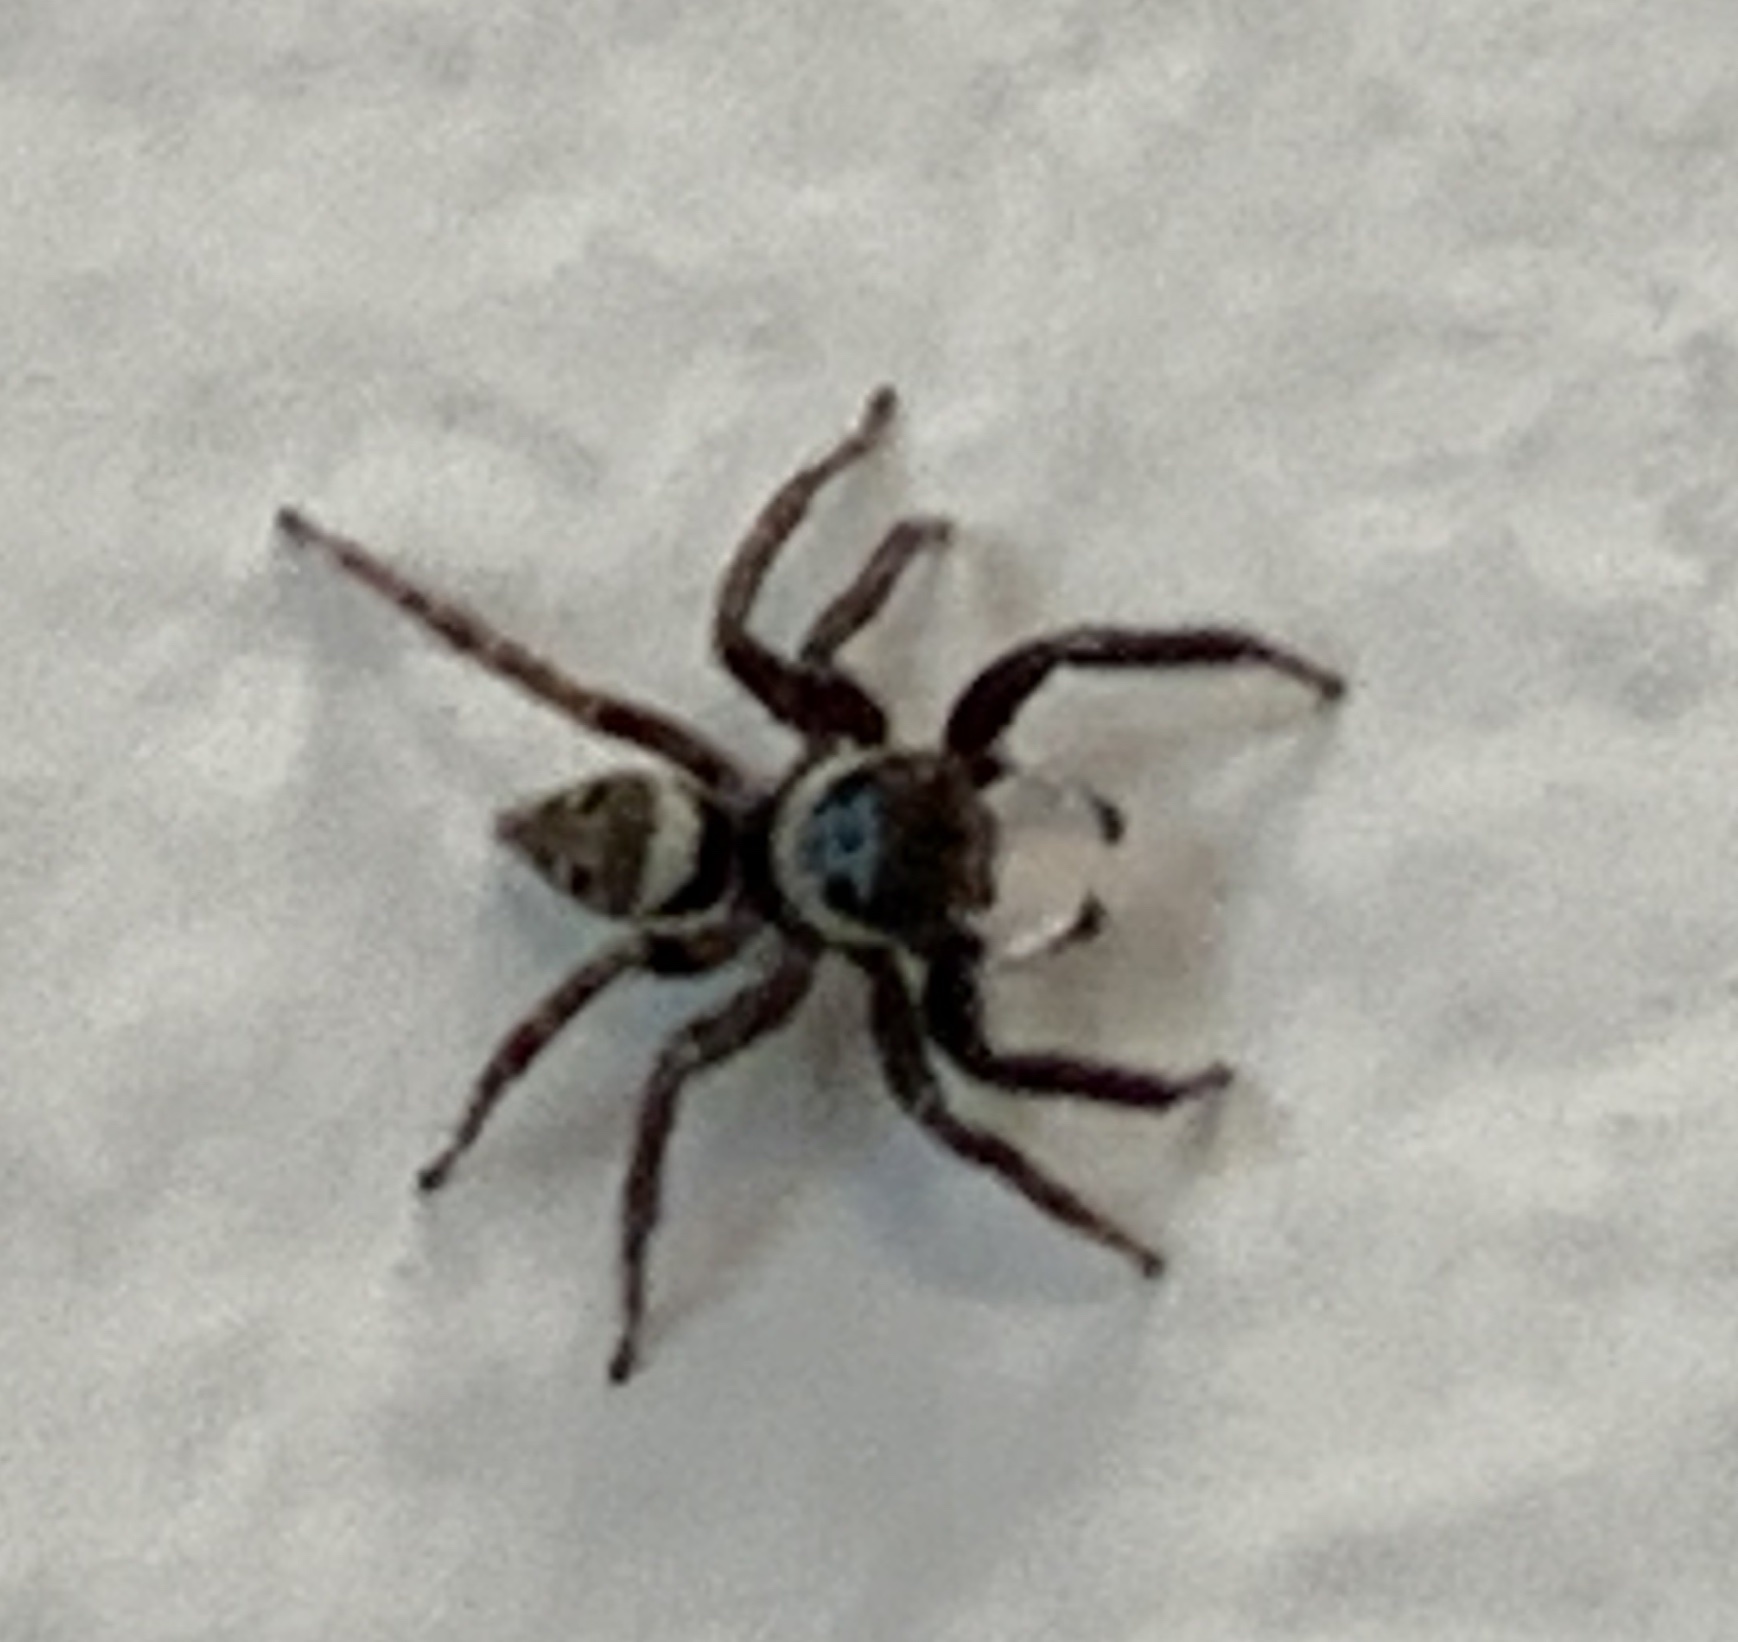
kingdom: Animalia
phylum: Arthropoda
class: Arachnida
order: Araneae
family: Salticidae
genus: Hasarius
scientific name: Hasarius adansoni
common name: Jumping spider
